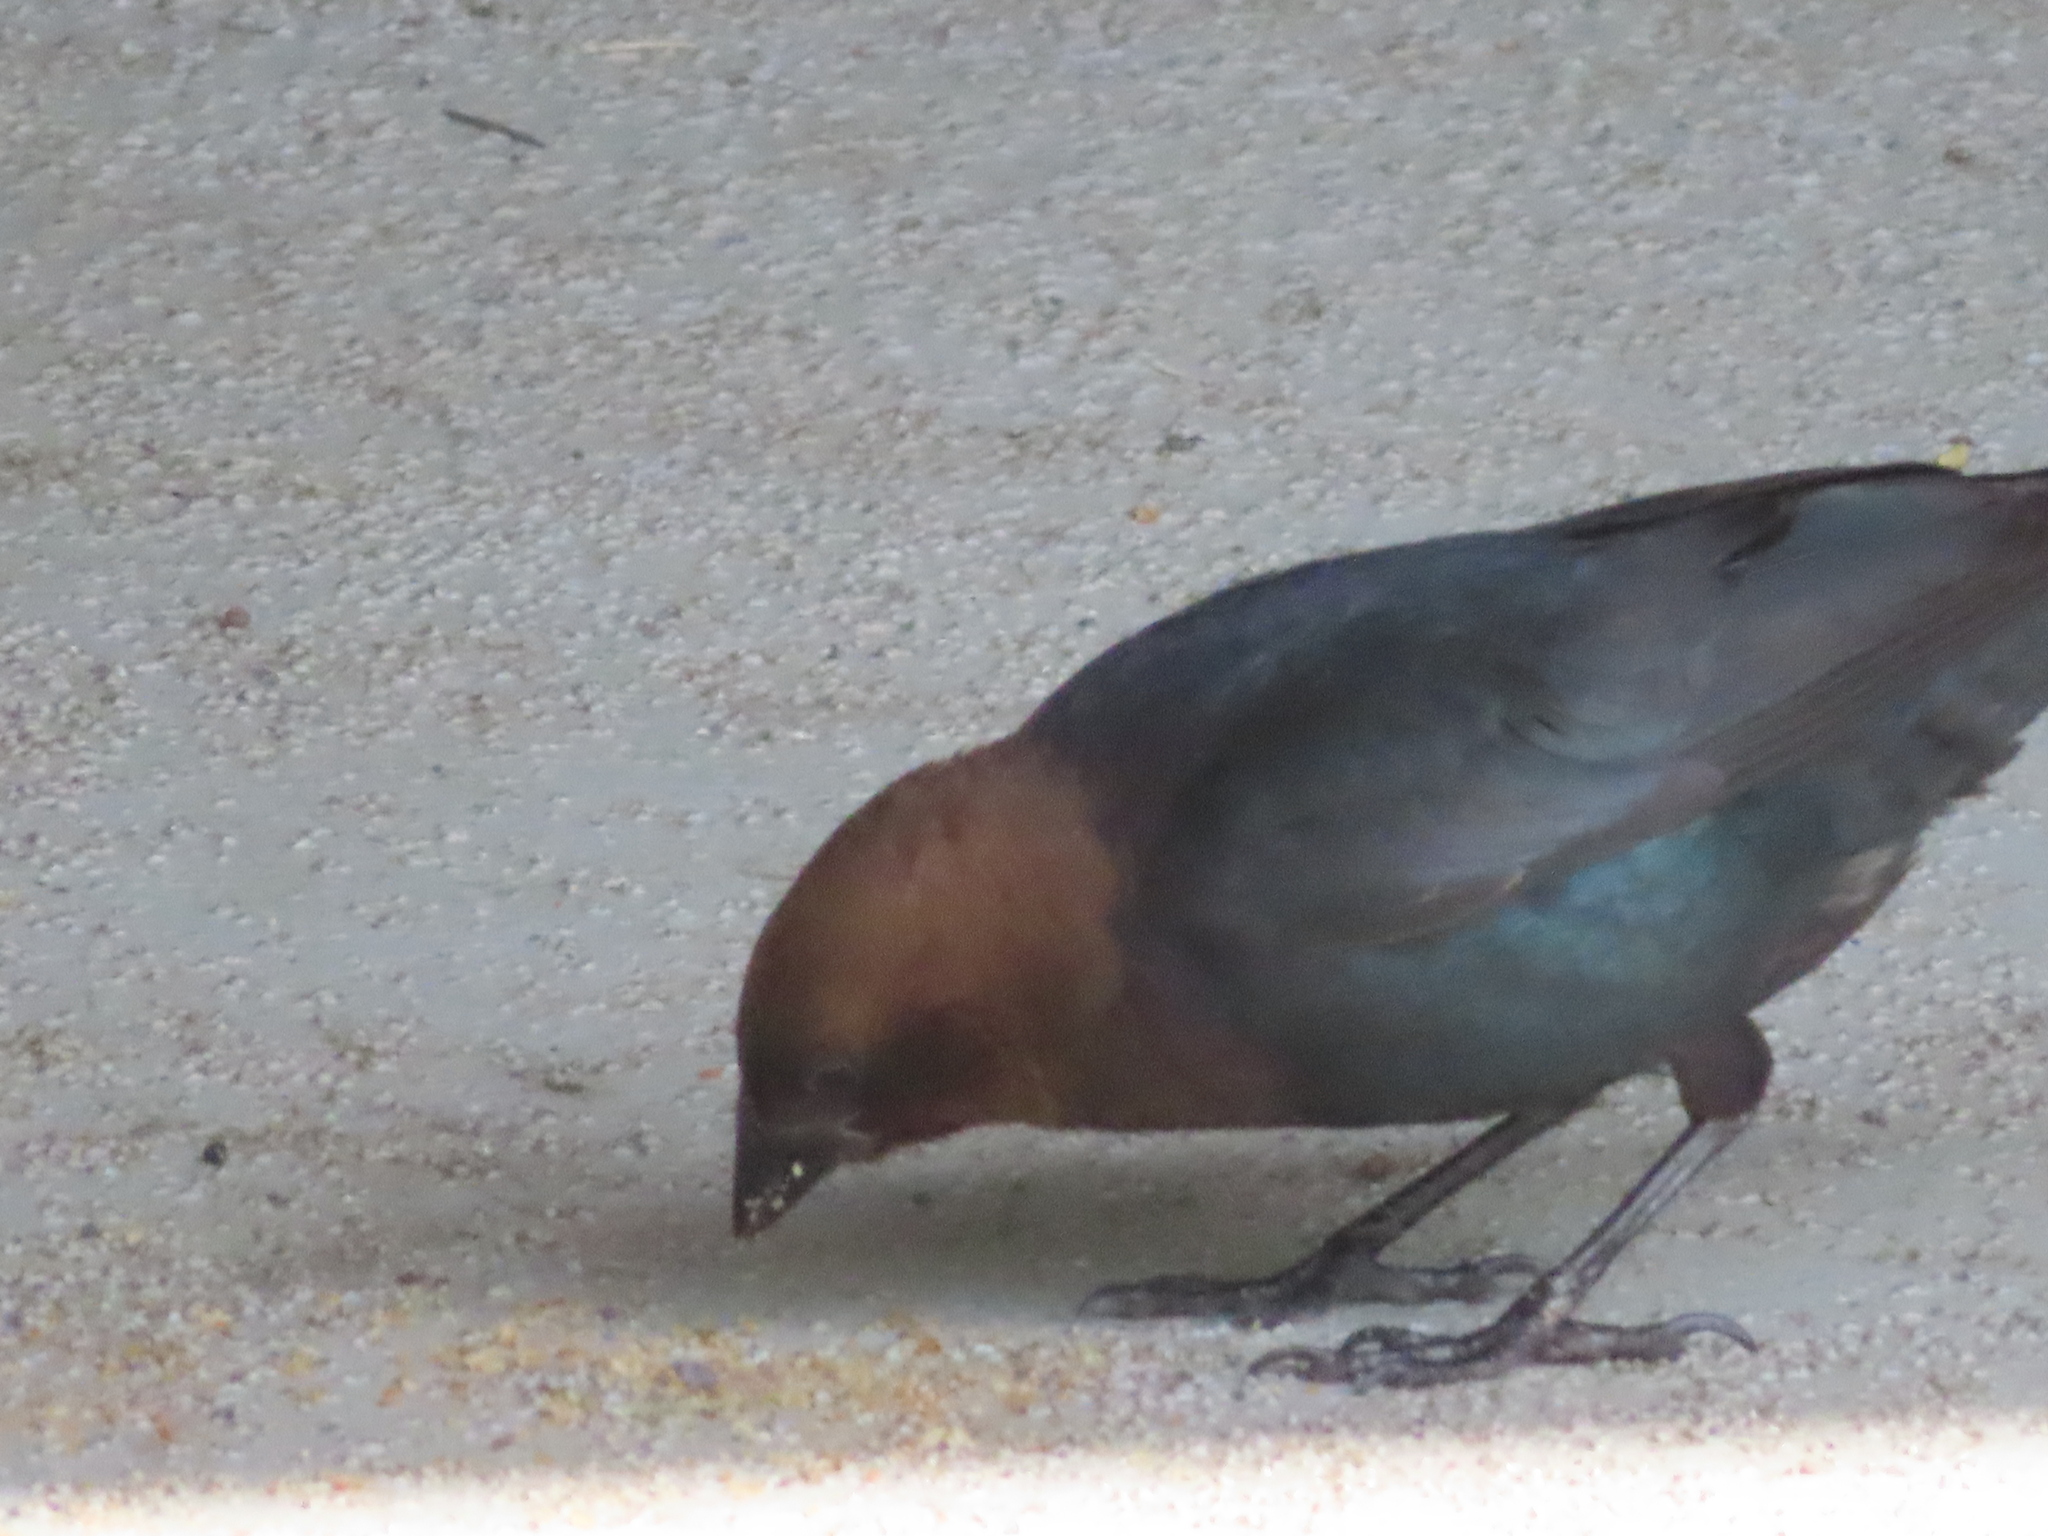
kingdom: Animalia
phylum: Chordata
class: Aves
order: Passeriformes
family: Icteridae
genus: Molothrus
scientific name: Molothrus ater
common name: Brown-headed cowbird
